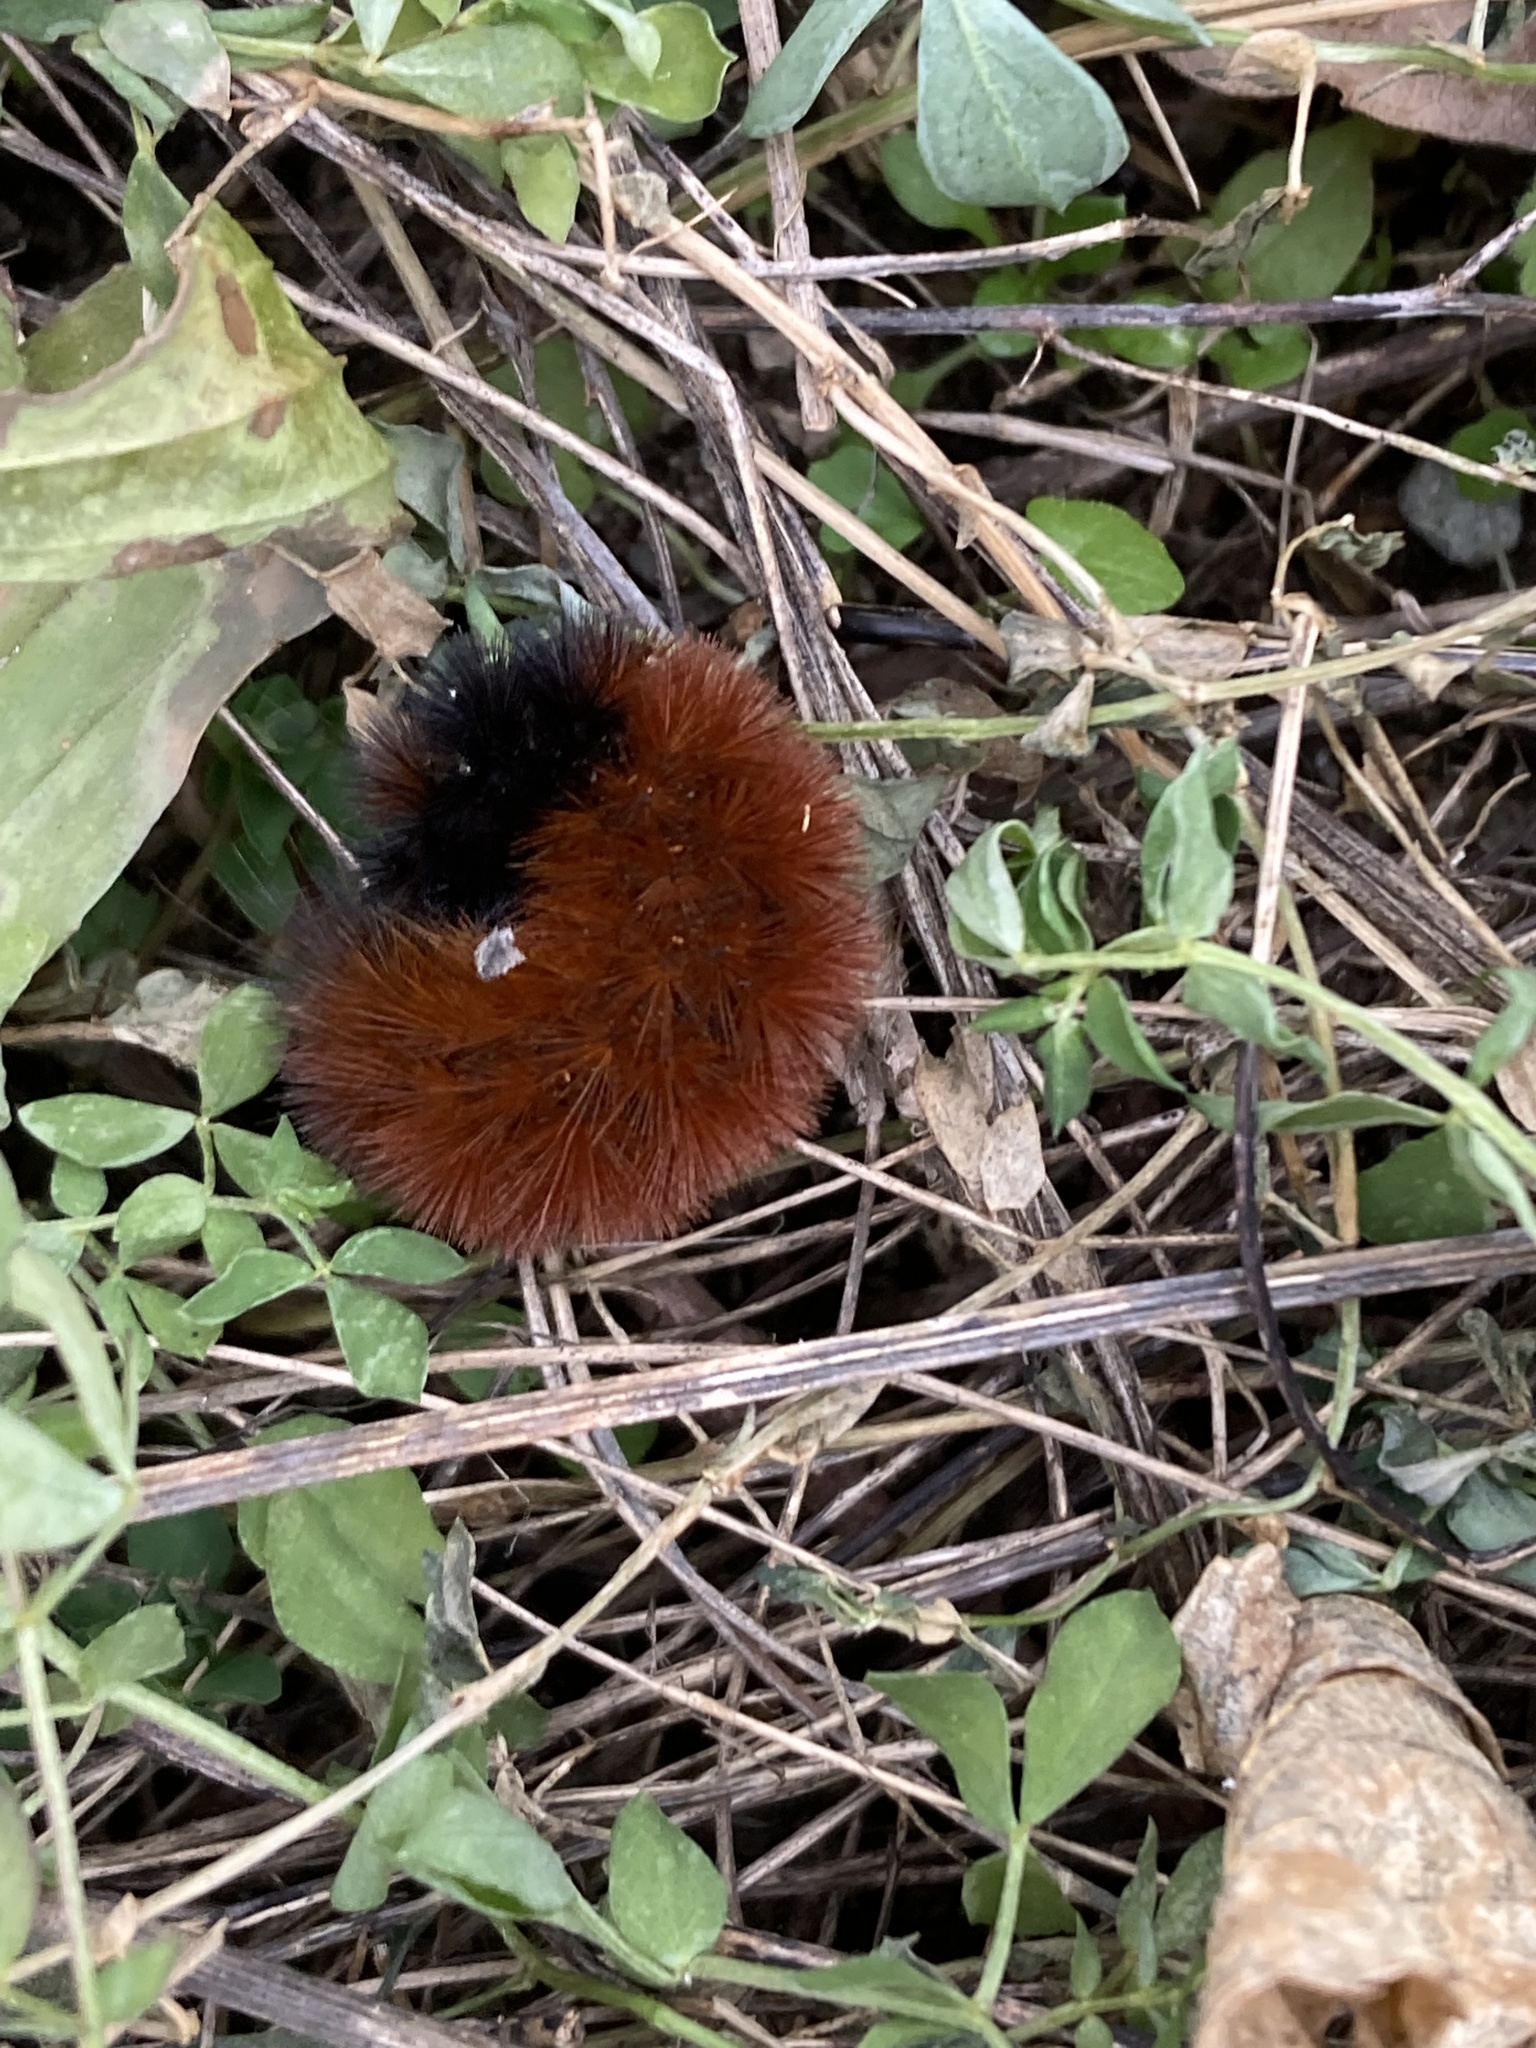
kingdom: Animalia
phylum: Arthropoda
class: Insecta
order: Lepidoptera
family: Erebidae
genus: Pyrrharctia
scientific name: Pyrrharctia isabella
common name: Isabella tiger moth
